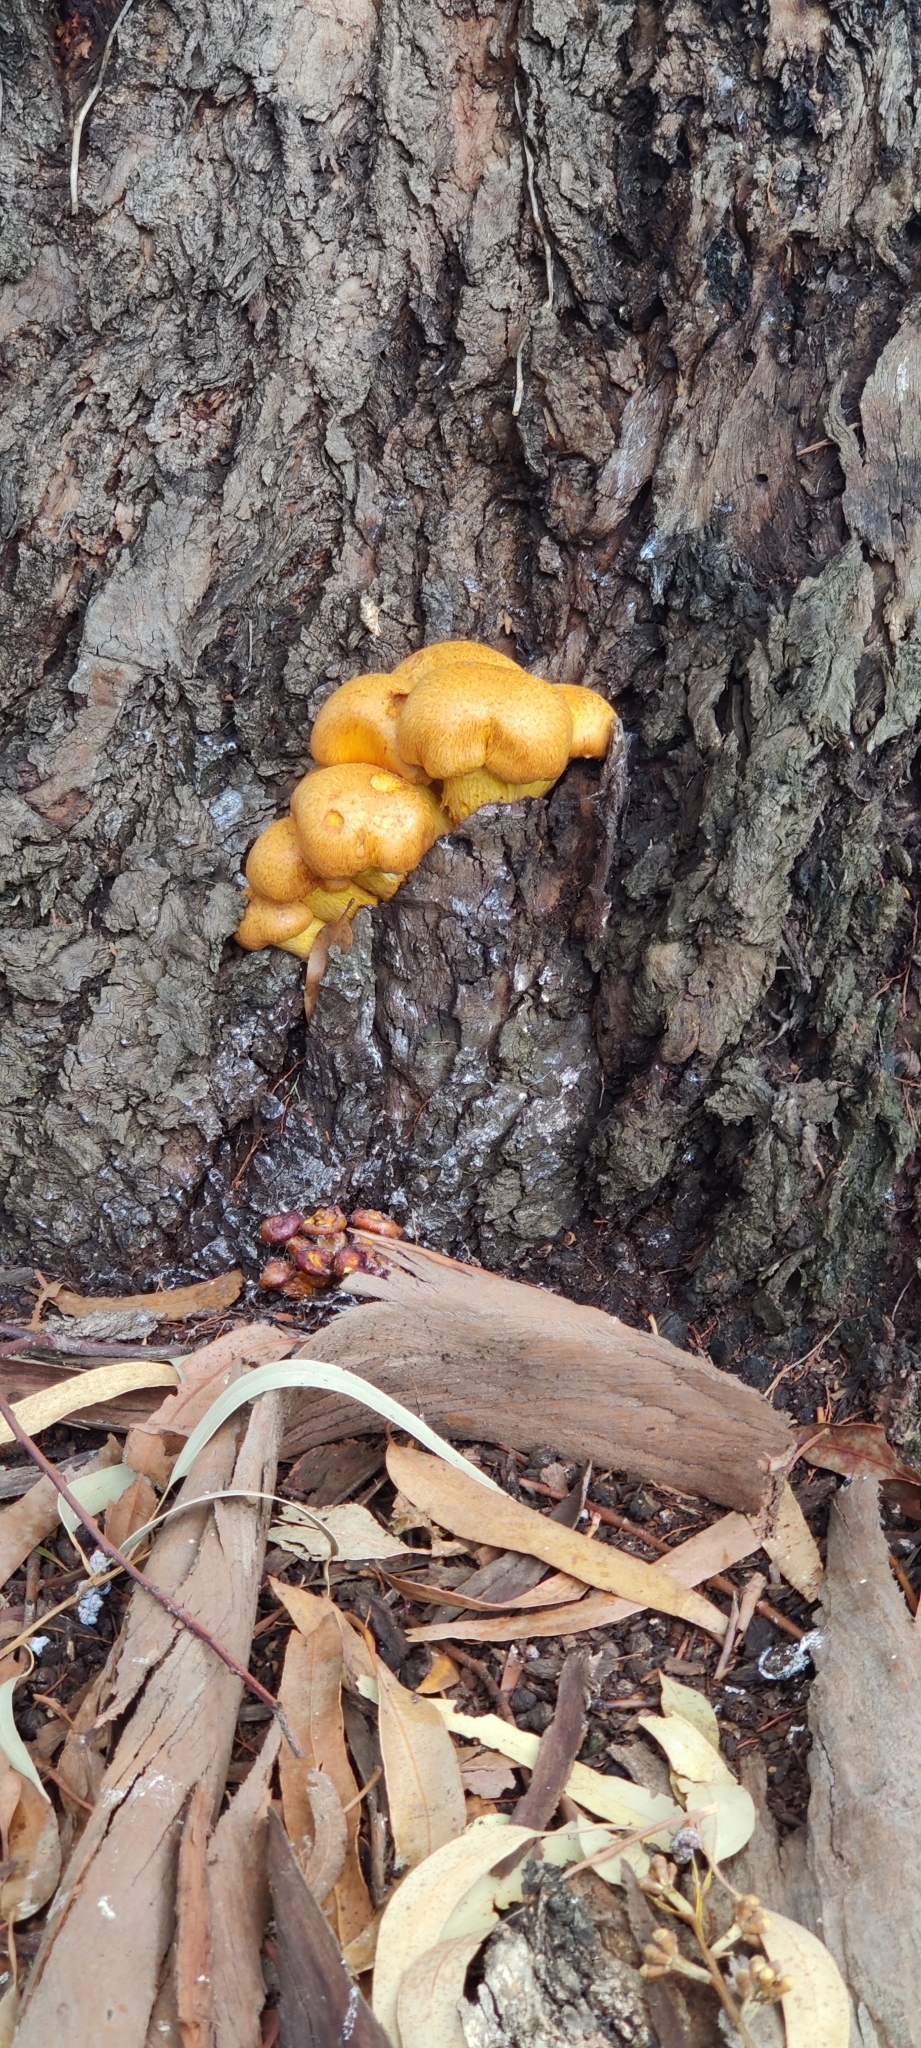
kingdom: Fungi
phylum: Basidiomycota
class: Agaricomycetes
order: Agaricales
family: Hymenogastraceae
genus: Gymnopilus
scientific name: Gymnopilus junonius
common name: Spectacular rustgill
